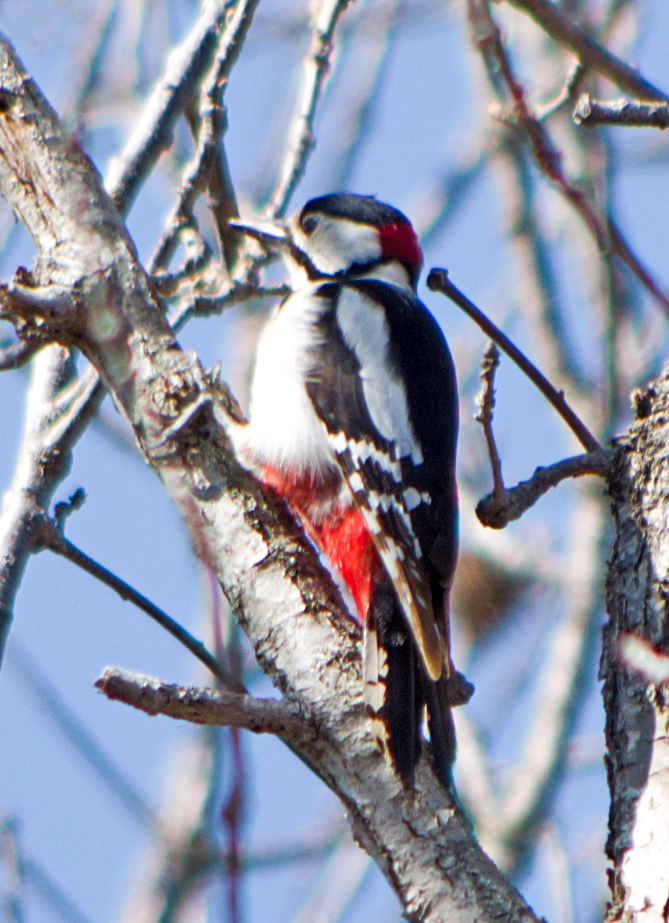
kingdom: Animalia
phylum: Chordata
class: Aves
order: Piciformes
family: Picidae
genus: Dendrocopos
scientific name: Dendrocopos major
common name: Great spotted woodpecker
